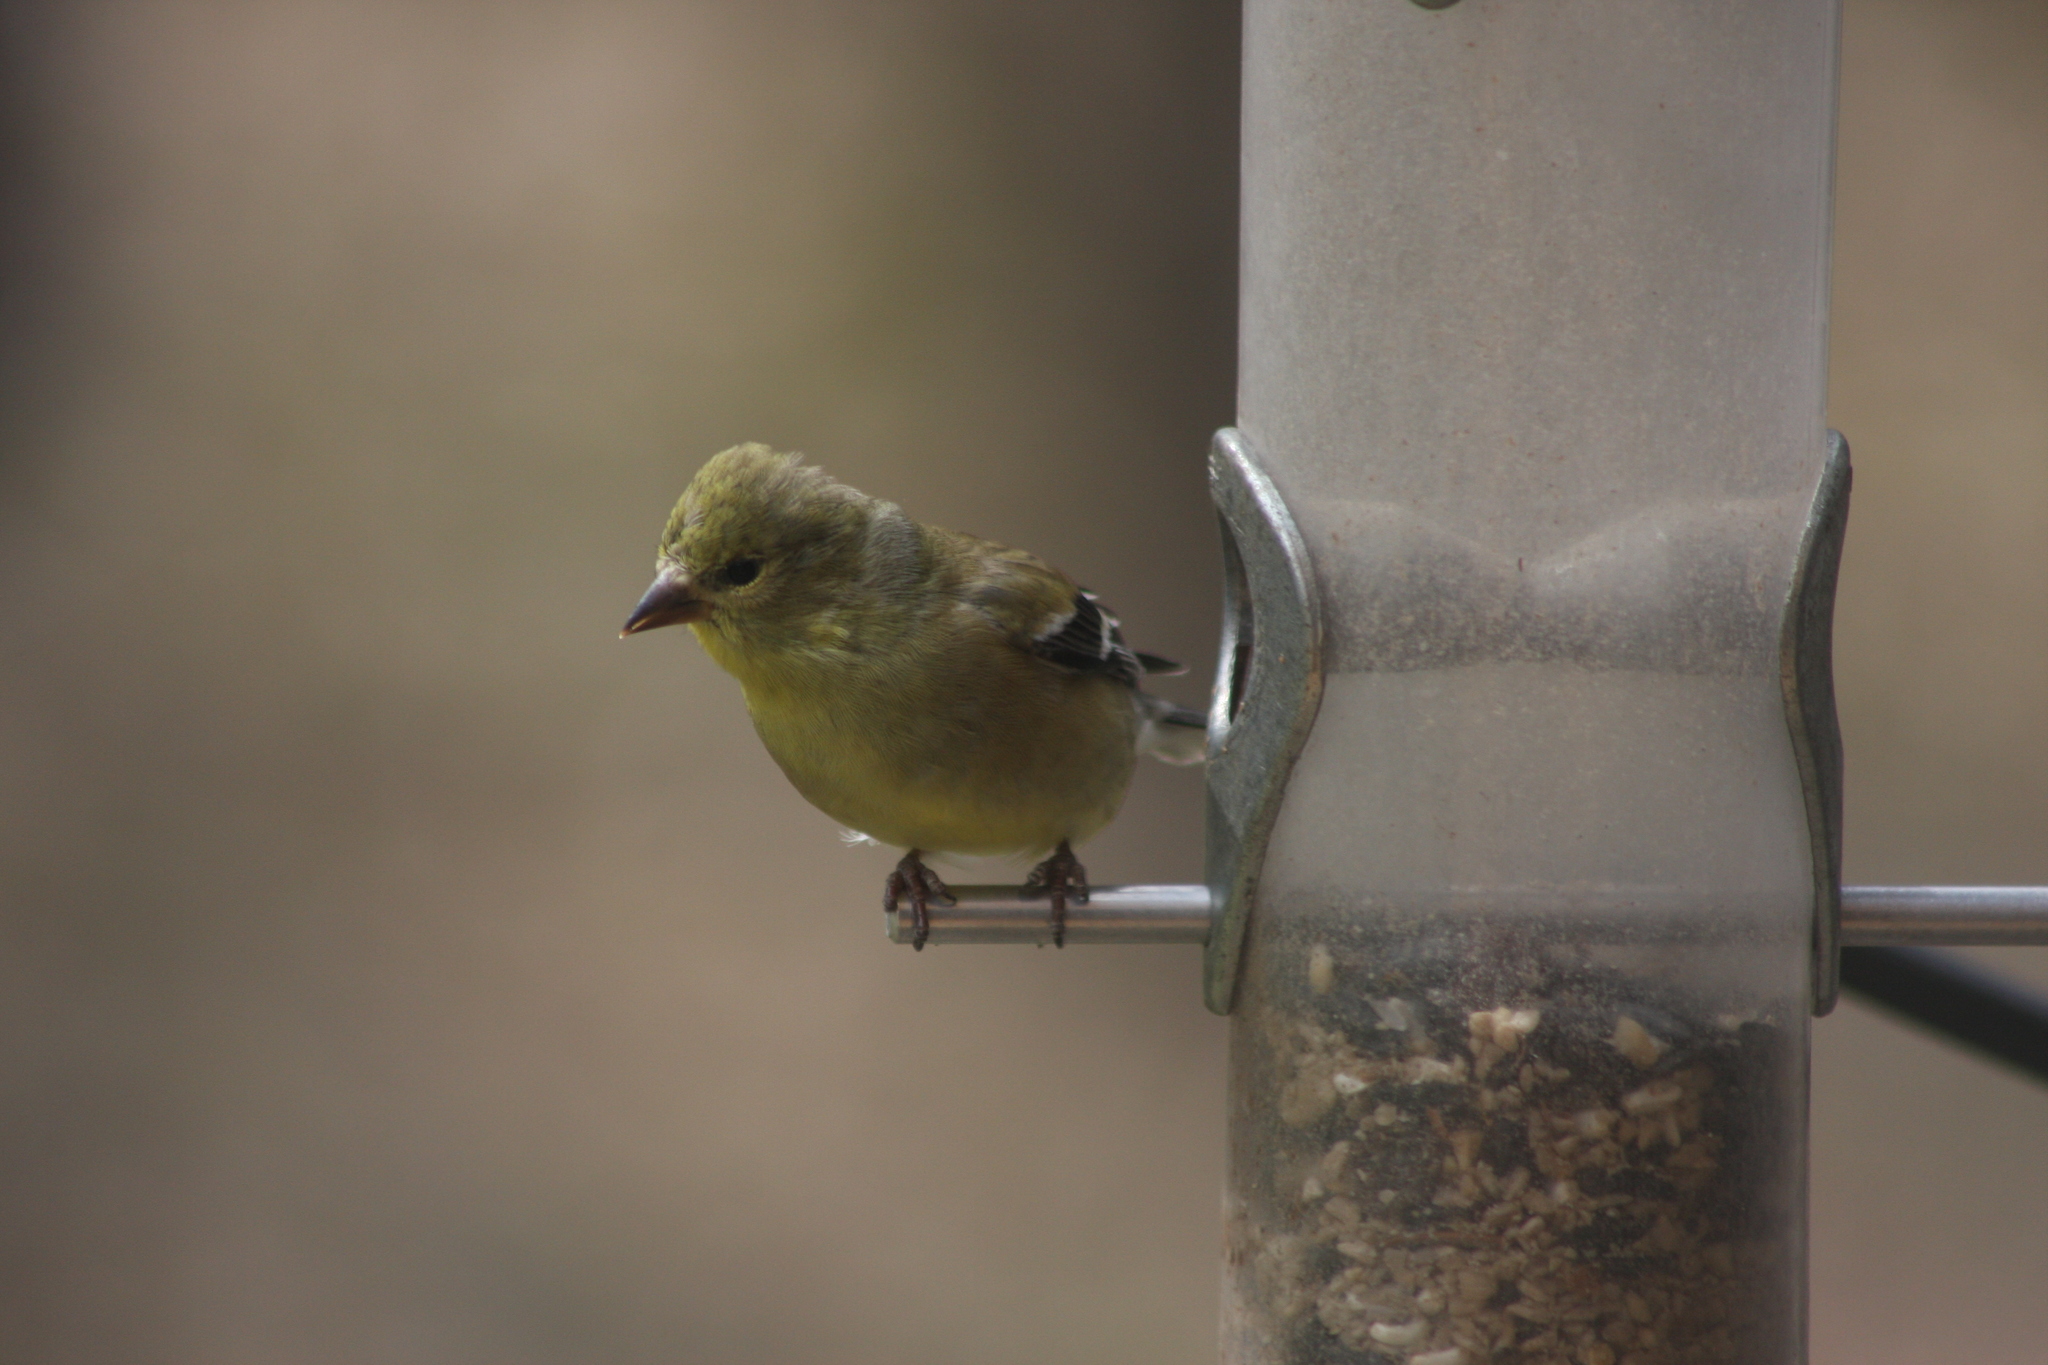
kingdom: Animalia
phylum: Chordata
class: Aves
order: Passeriformes
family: Fringillidae
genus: Spinus
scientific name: Spinus tristis
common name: American goldfinch
